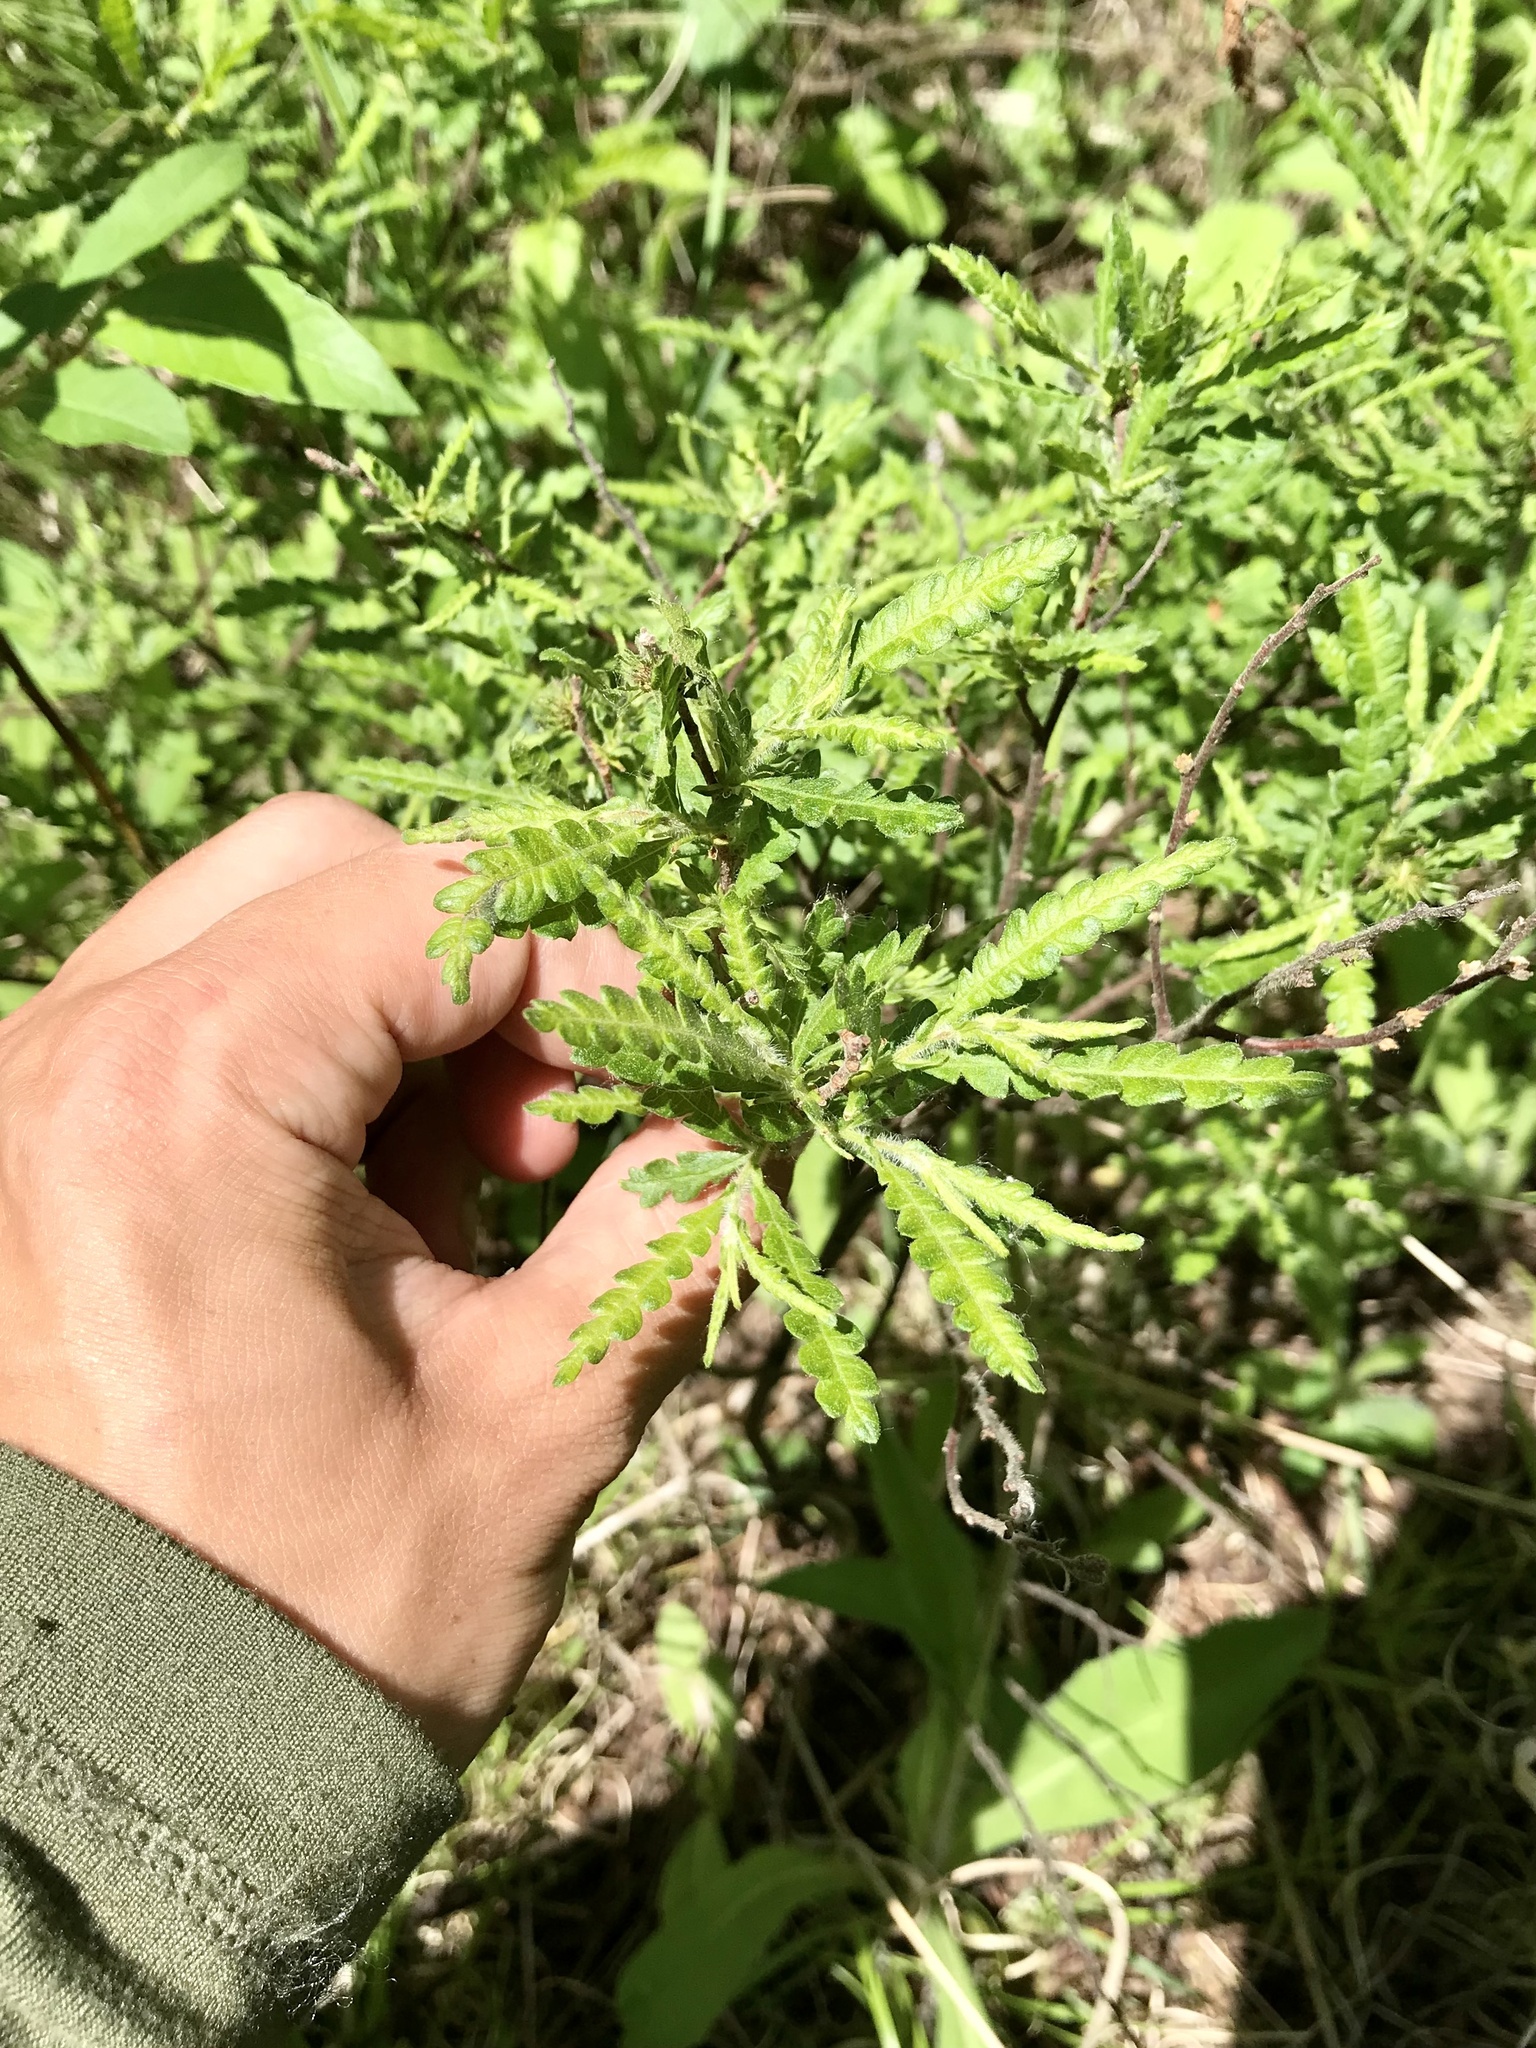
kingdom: Plantae
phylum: Tracheophyta
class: Magnoliopsida
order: Fagales
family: Myricaceae
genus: Comptonia
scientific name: Comptonia peregrina
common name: Sweet-fern
